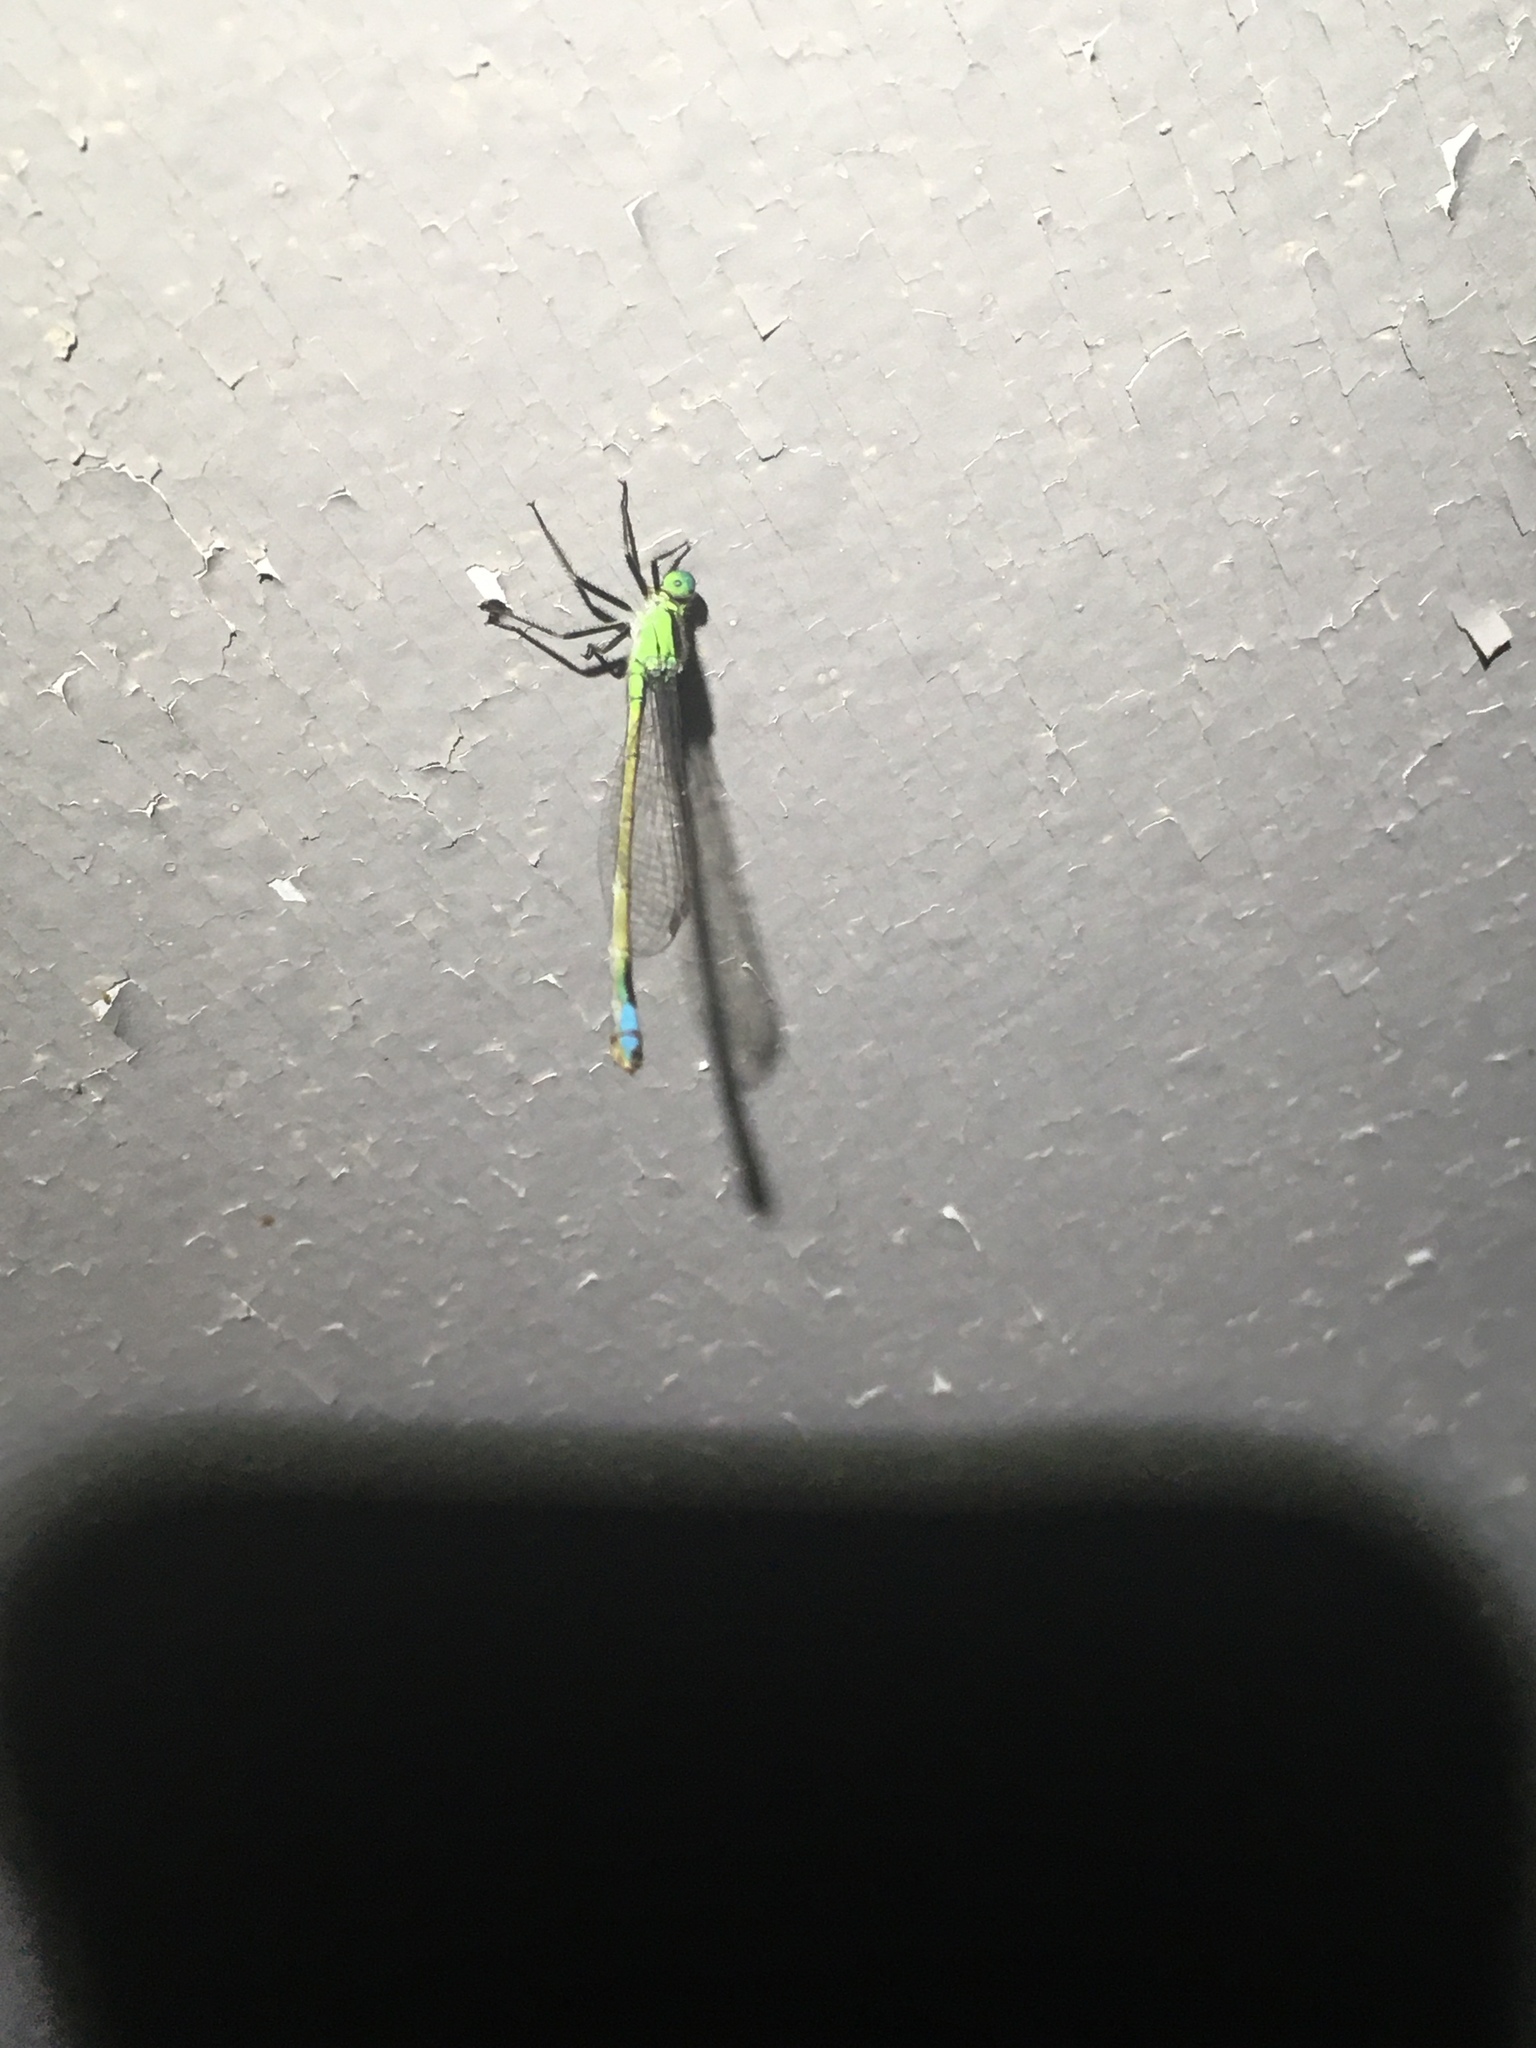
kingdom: Animalia
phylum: Arthropoda
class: Insecta
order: Odonata
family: Coenagrionidae
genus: Ischnura
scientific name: Ischnura ramburii
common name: Rambur's forktail
